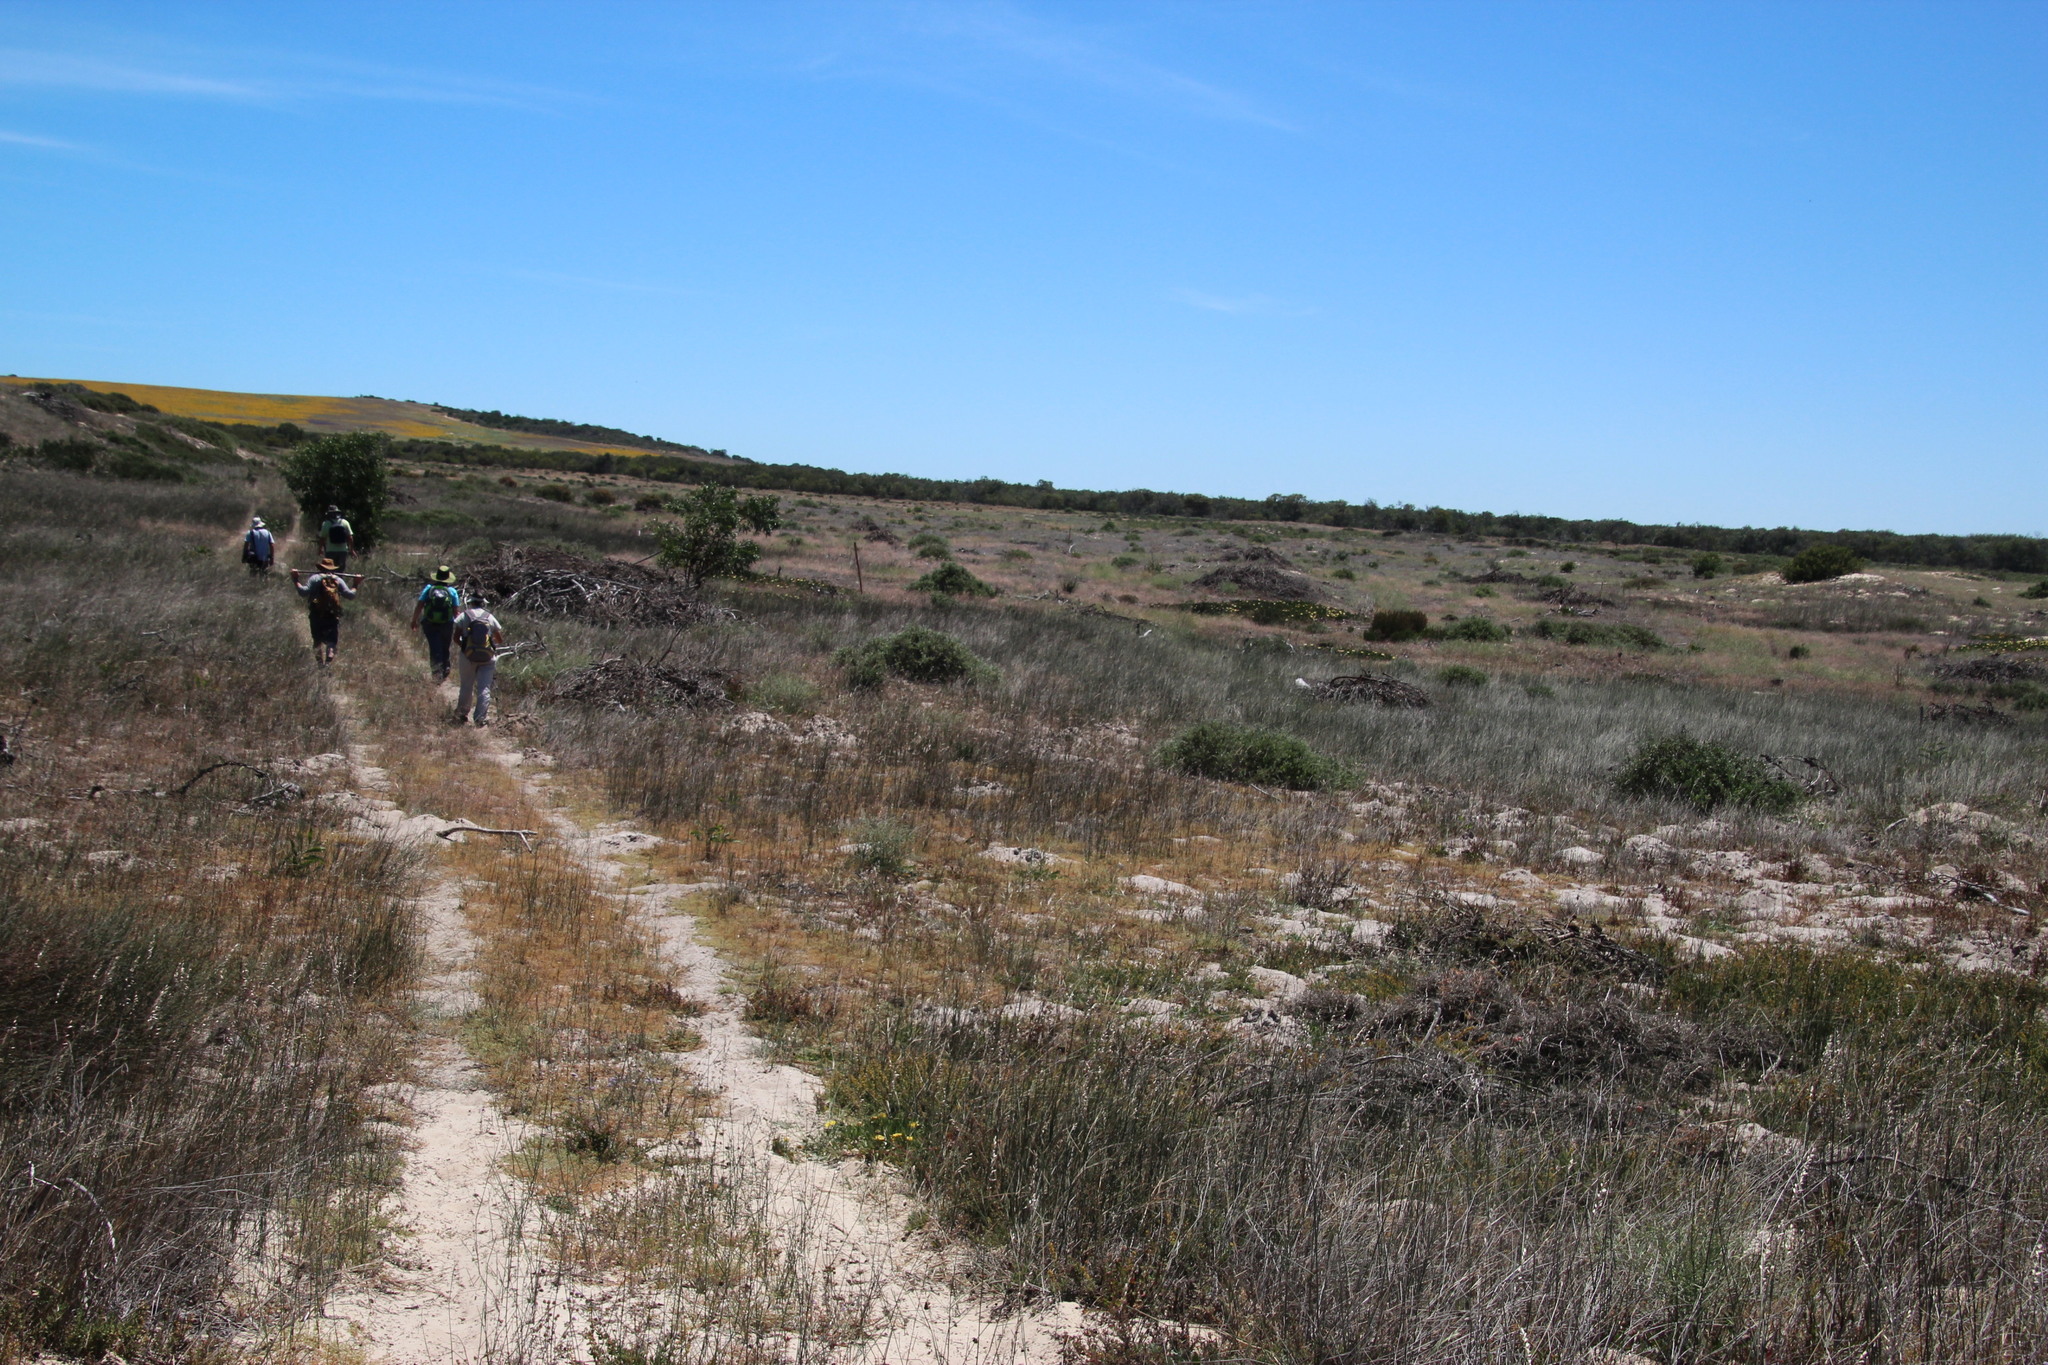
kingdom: Plantae
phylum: Tracheophyta
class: Magnoliopsida
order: Caryophyllales
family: Molluginaceae
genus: Adenogramma
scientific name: Adenogramma glomerata
